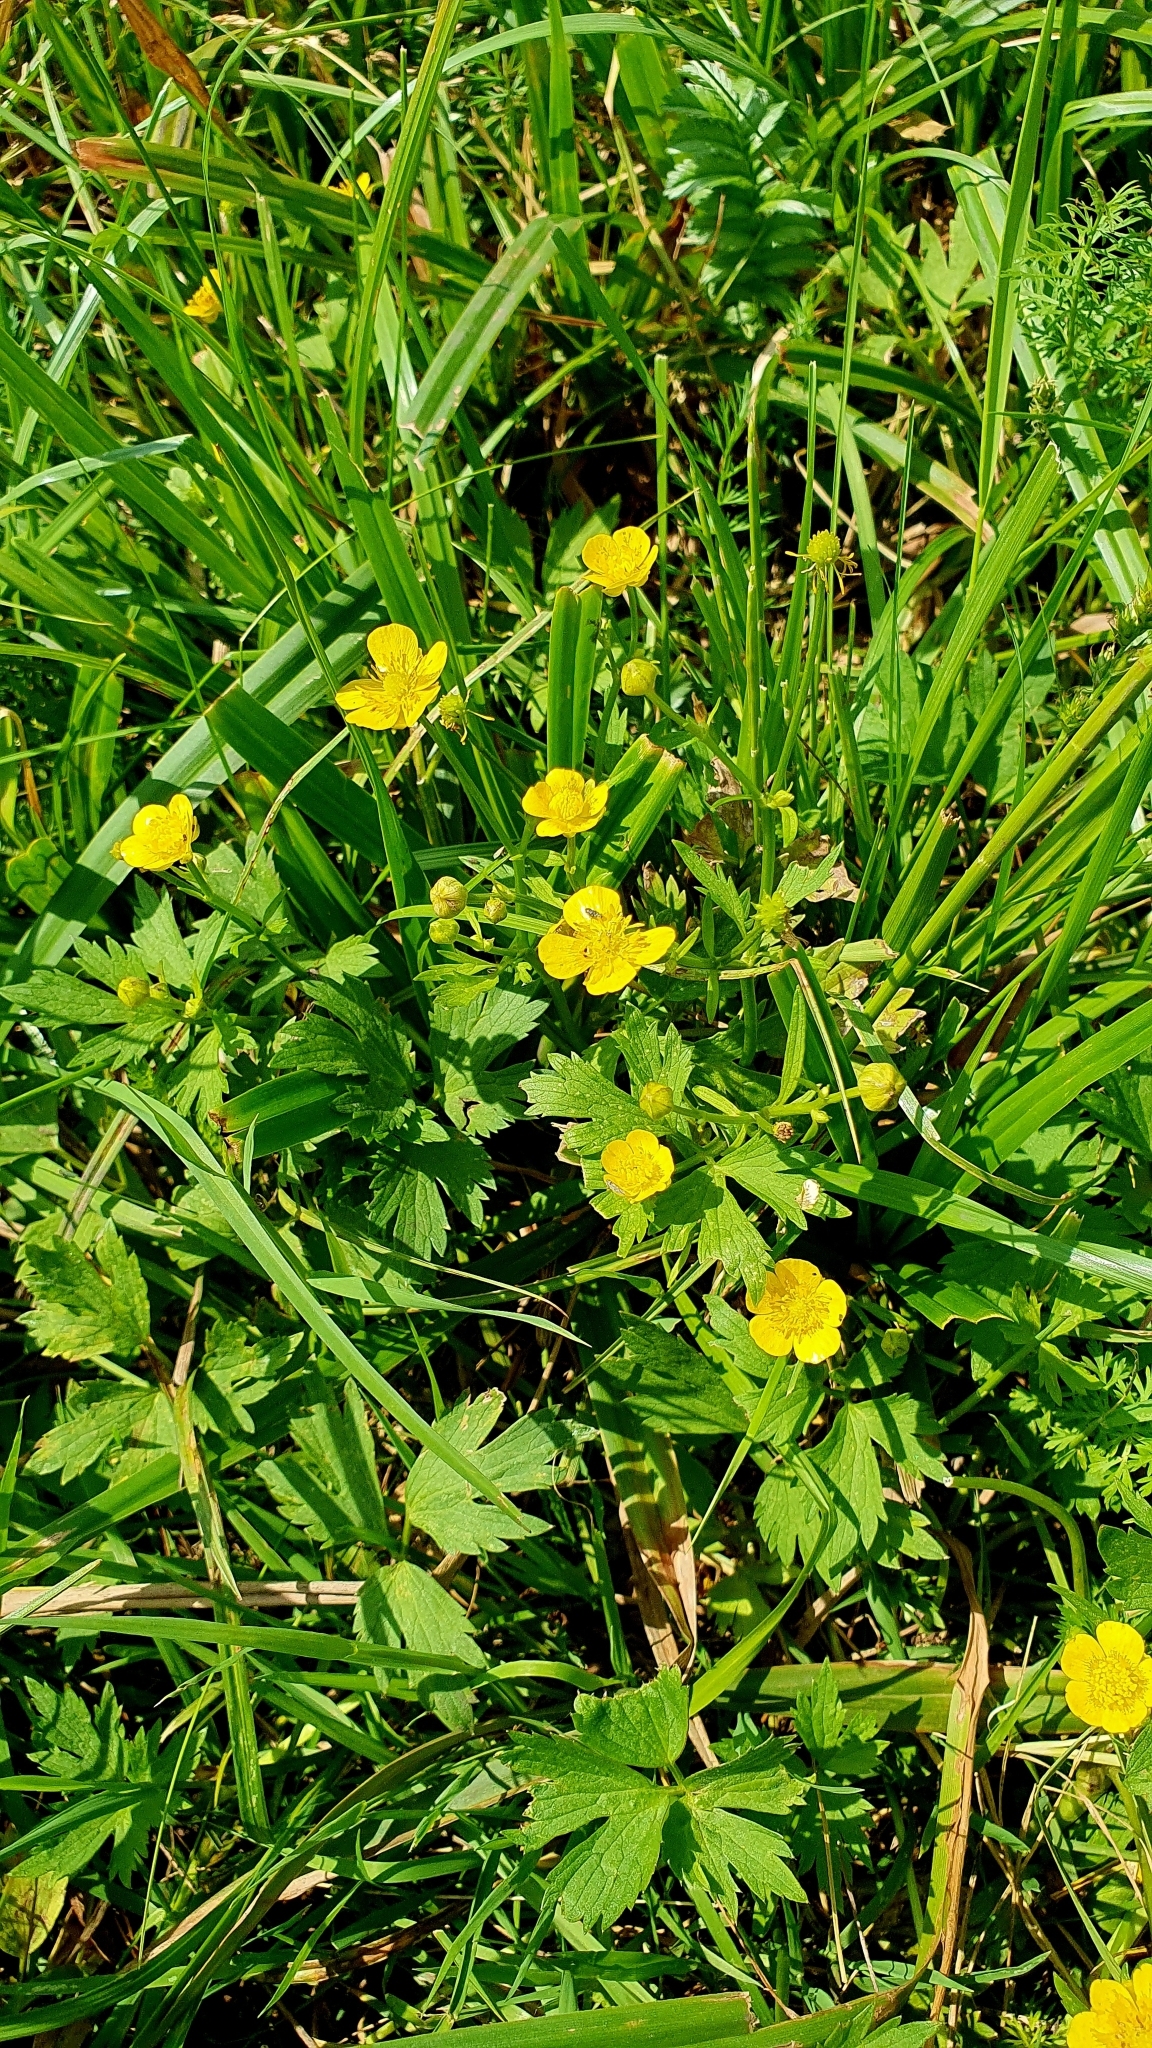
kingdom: Plantae
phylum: Tracheophyta
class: Magnoliopsida
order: Ranunculales
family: Ranunculaceae
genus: Ranunculus
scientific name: Ranunculus repens
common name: Creeping buttercup
